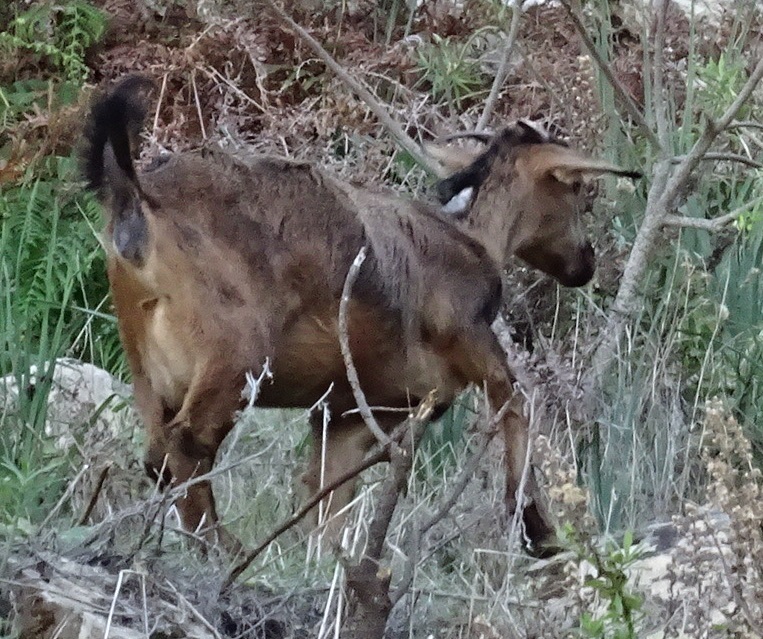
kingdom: Animalia
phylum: Chordata
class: Mammalia
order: Artiodactyla
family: Bovidae
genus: Capra
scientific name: Capra hircus
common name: Domestic goat
